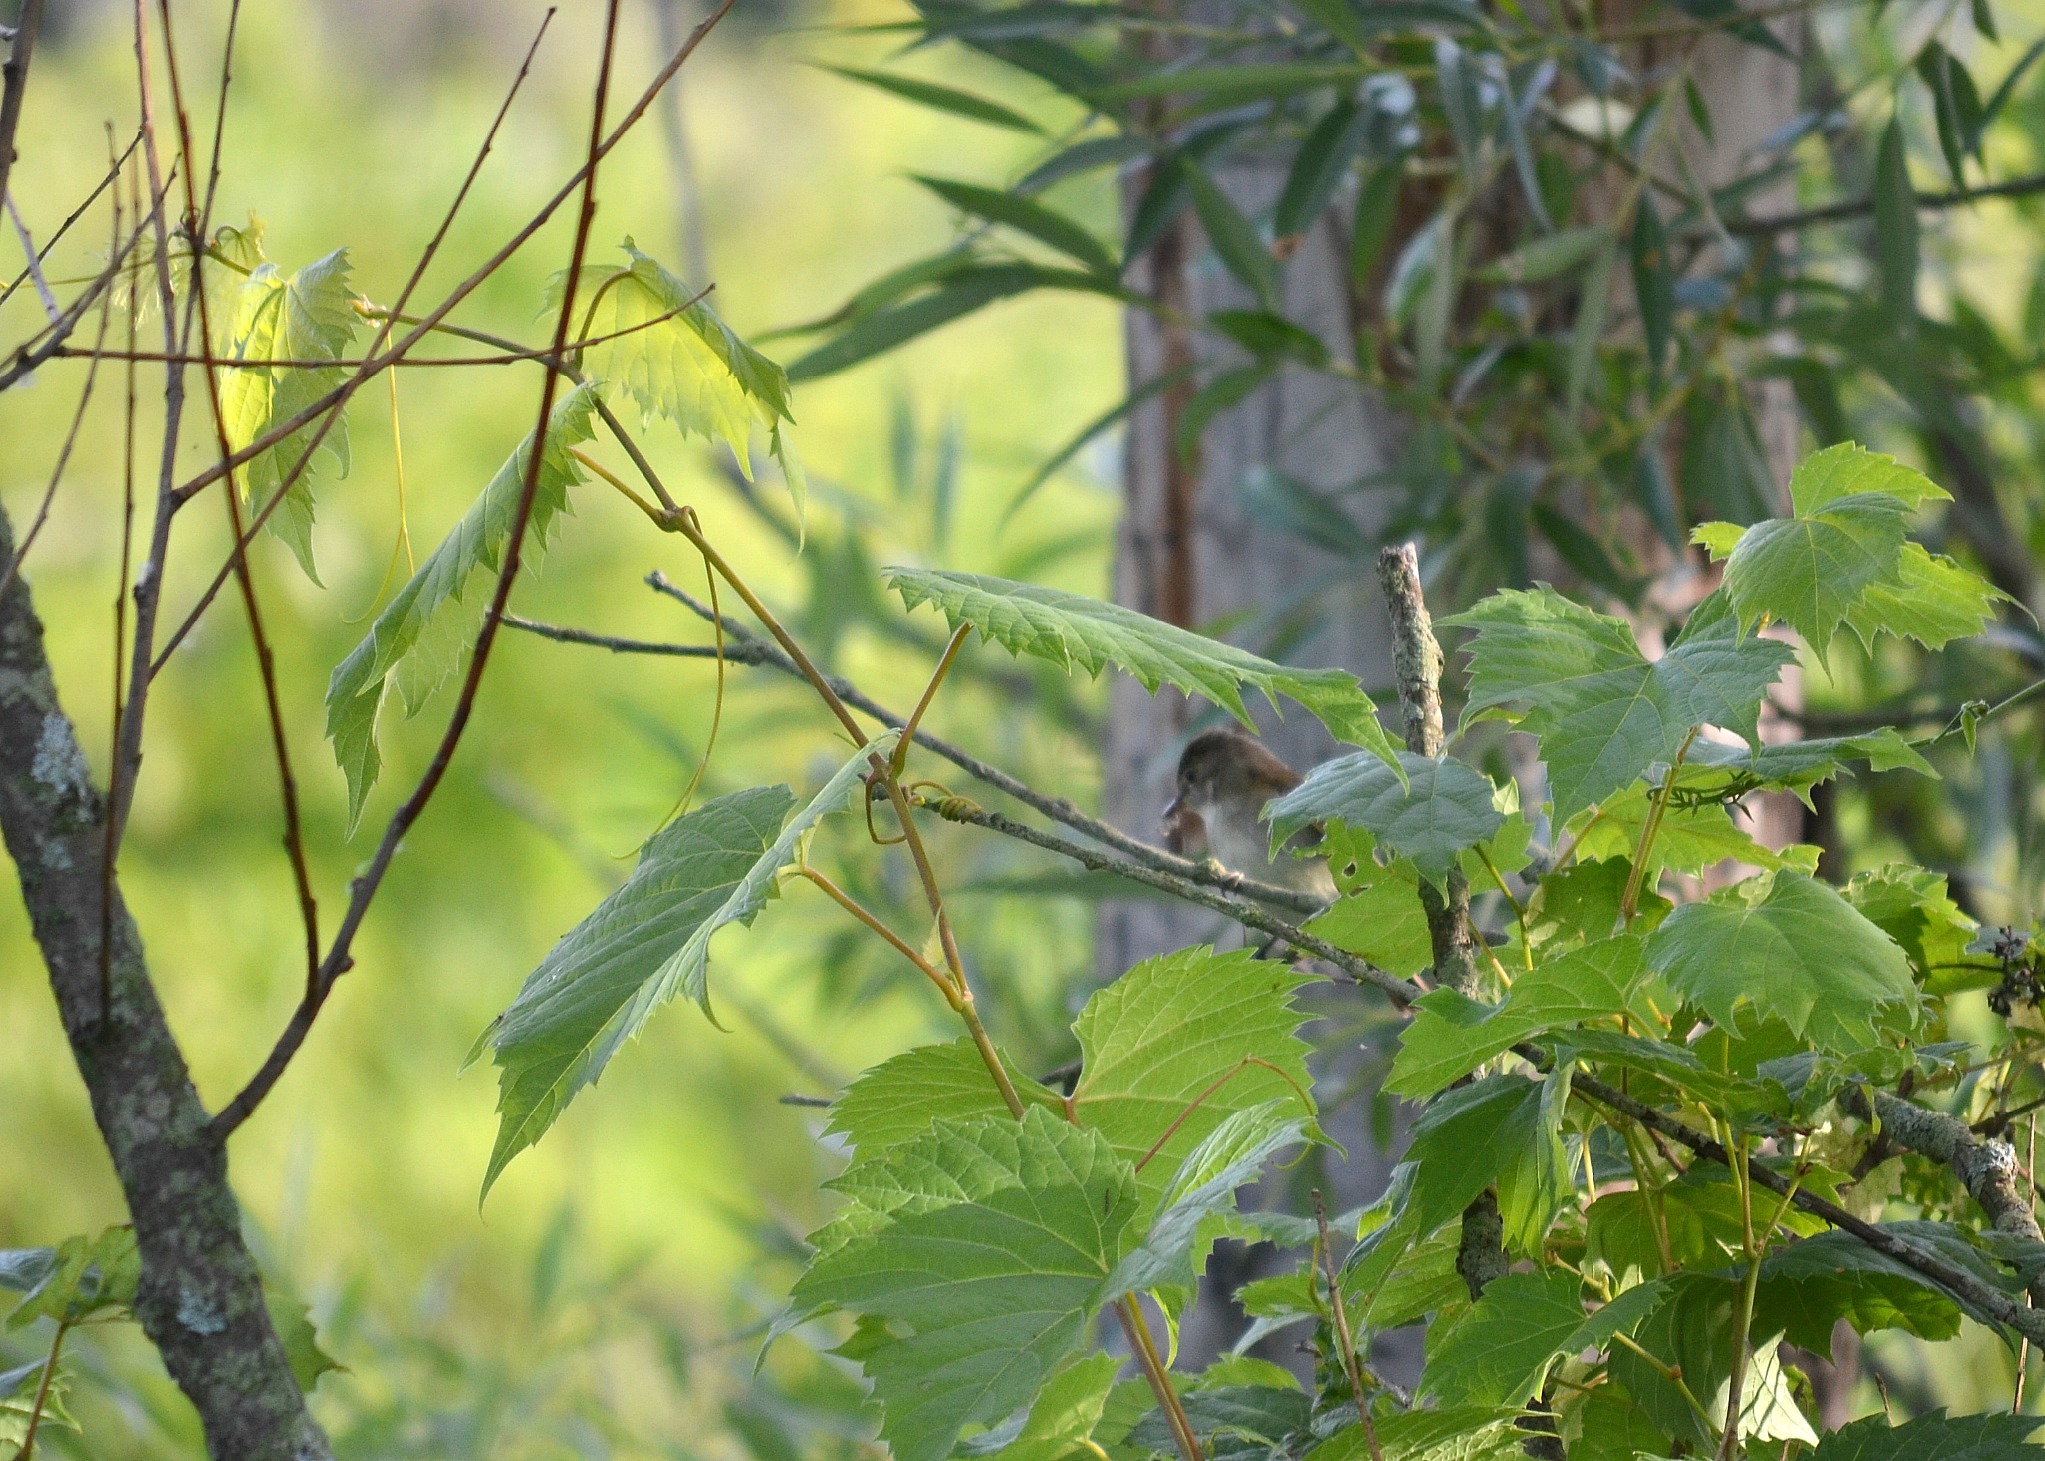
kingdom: Animalia
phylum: Chordata
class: Aves
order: Passeriformes
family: Tyrannidae
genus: Sayornis
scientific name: Sayornis phoebe
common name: Eastern phoebe
